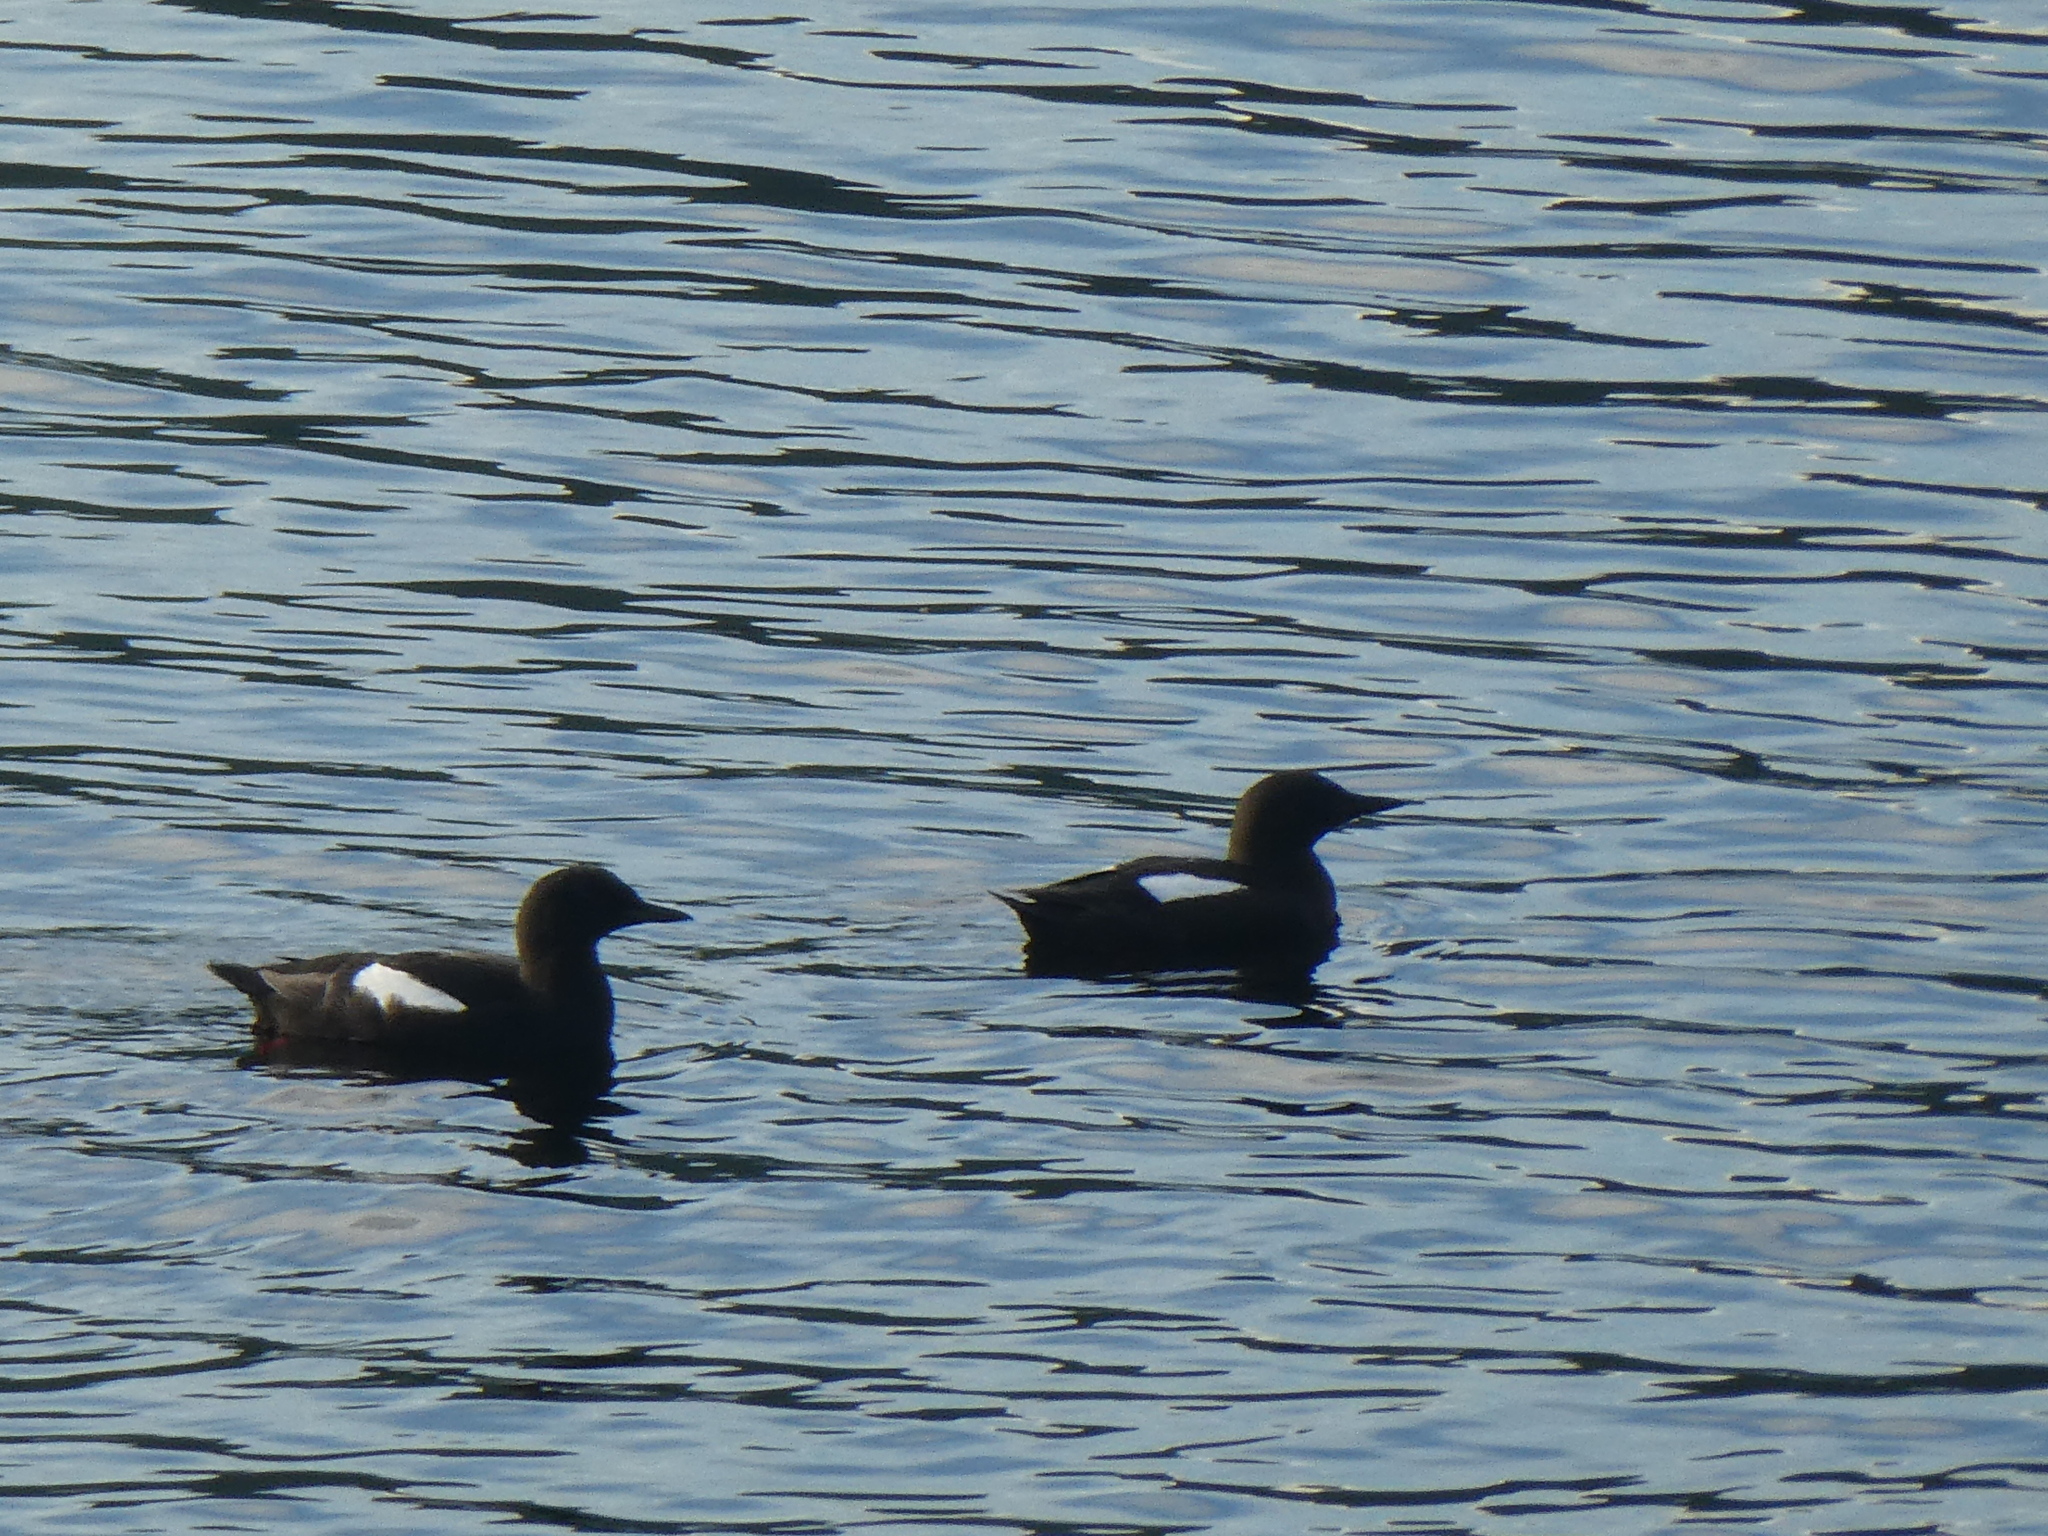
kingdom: Animalia
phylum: Chordata
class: Aves
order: Charadriiformes
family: Alcidae
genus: Cepphus
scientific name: Cepphus grylle
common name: Black guillemot
